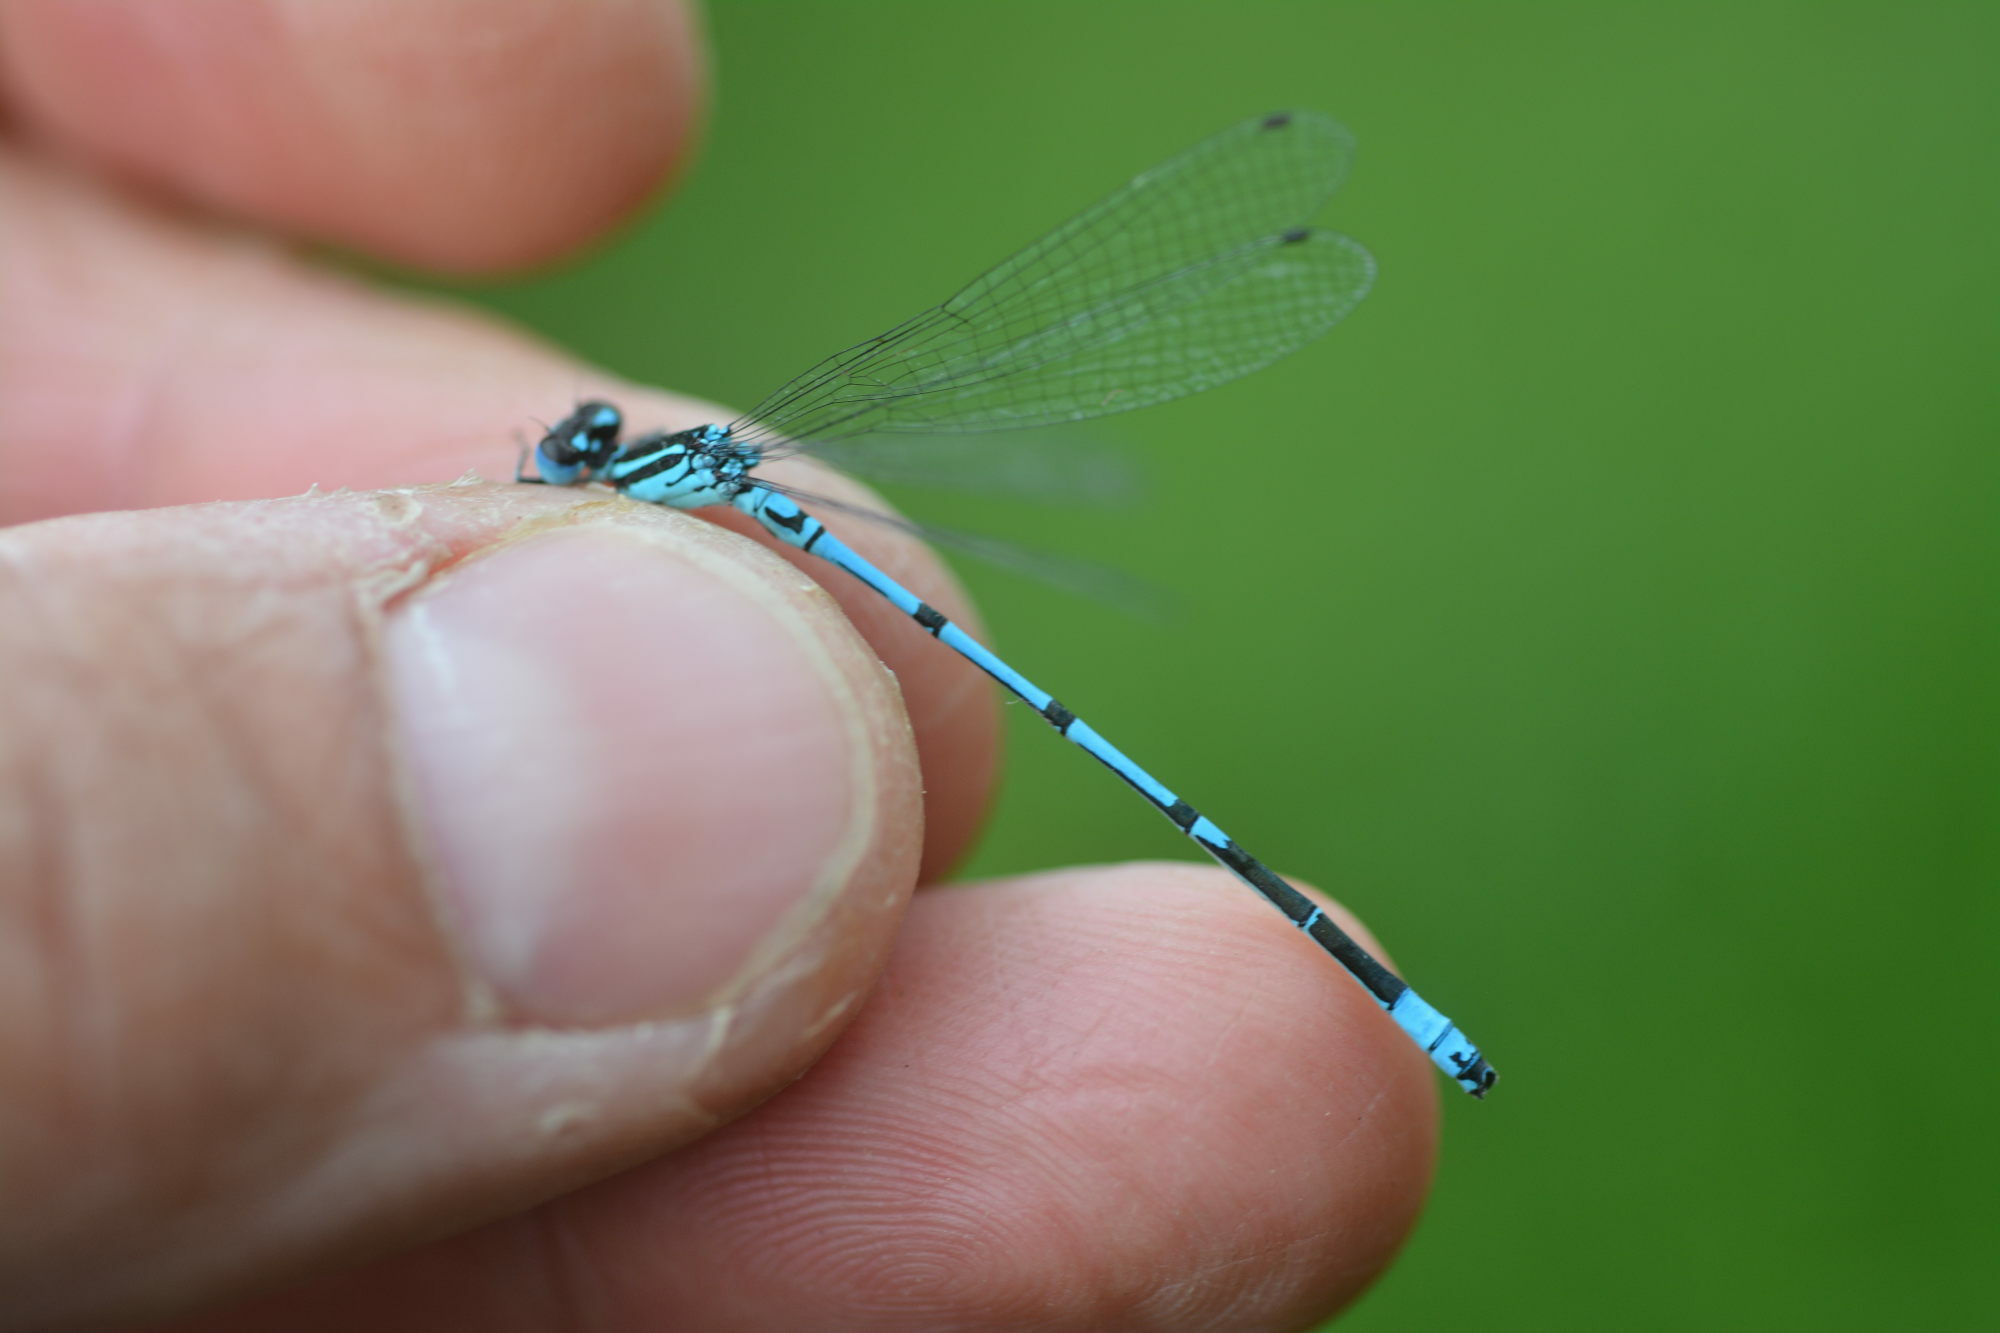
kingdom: Animalia
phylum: Arthropoda
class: Insecta
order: Odonata
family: Coenagrionidae
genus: Coenagrion
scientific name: Coenagrion puella
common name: Azure damselfly
